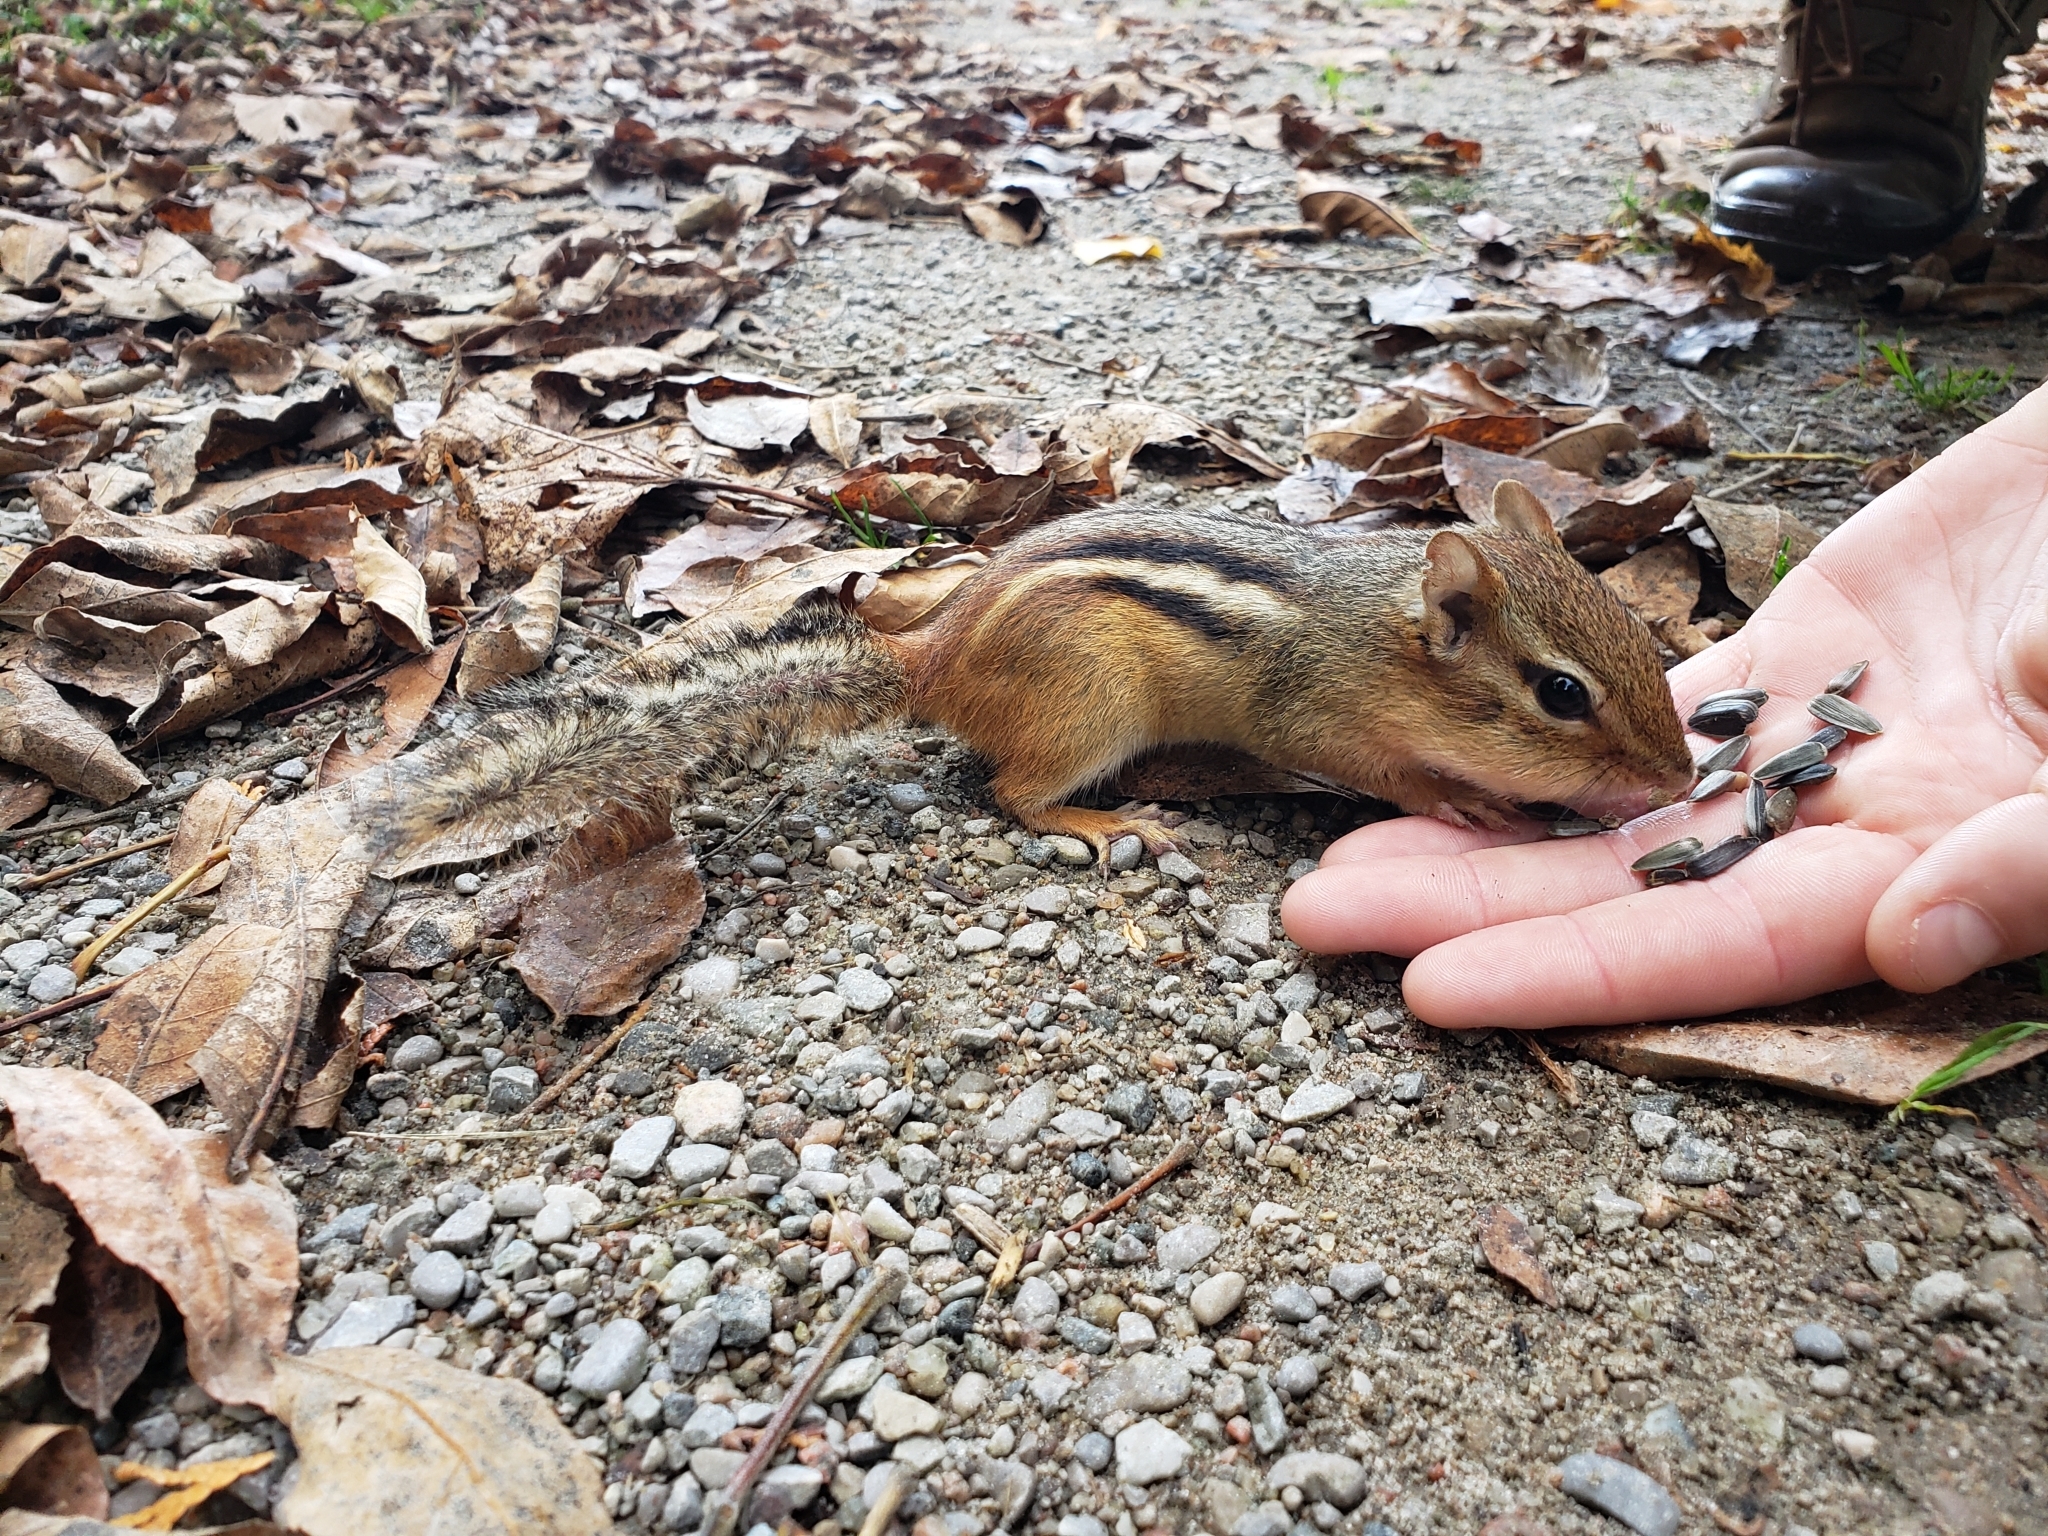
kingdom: Animalia
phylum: Chordata
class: Mammalia
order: Rodentia
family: Sciuridae
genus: Tamias
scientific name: Tamias striatus
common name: Eastern chipmunk
